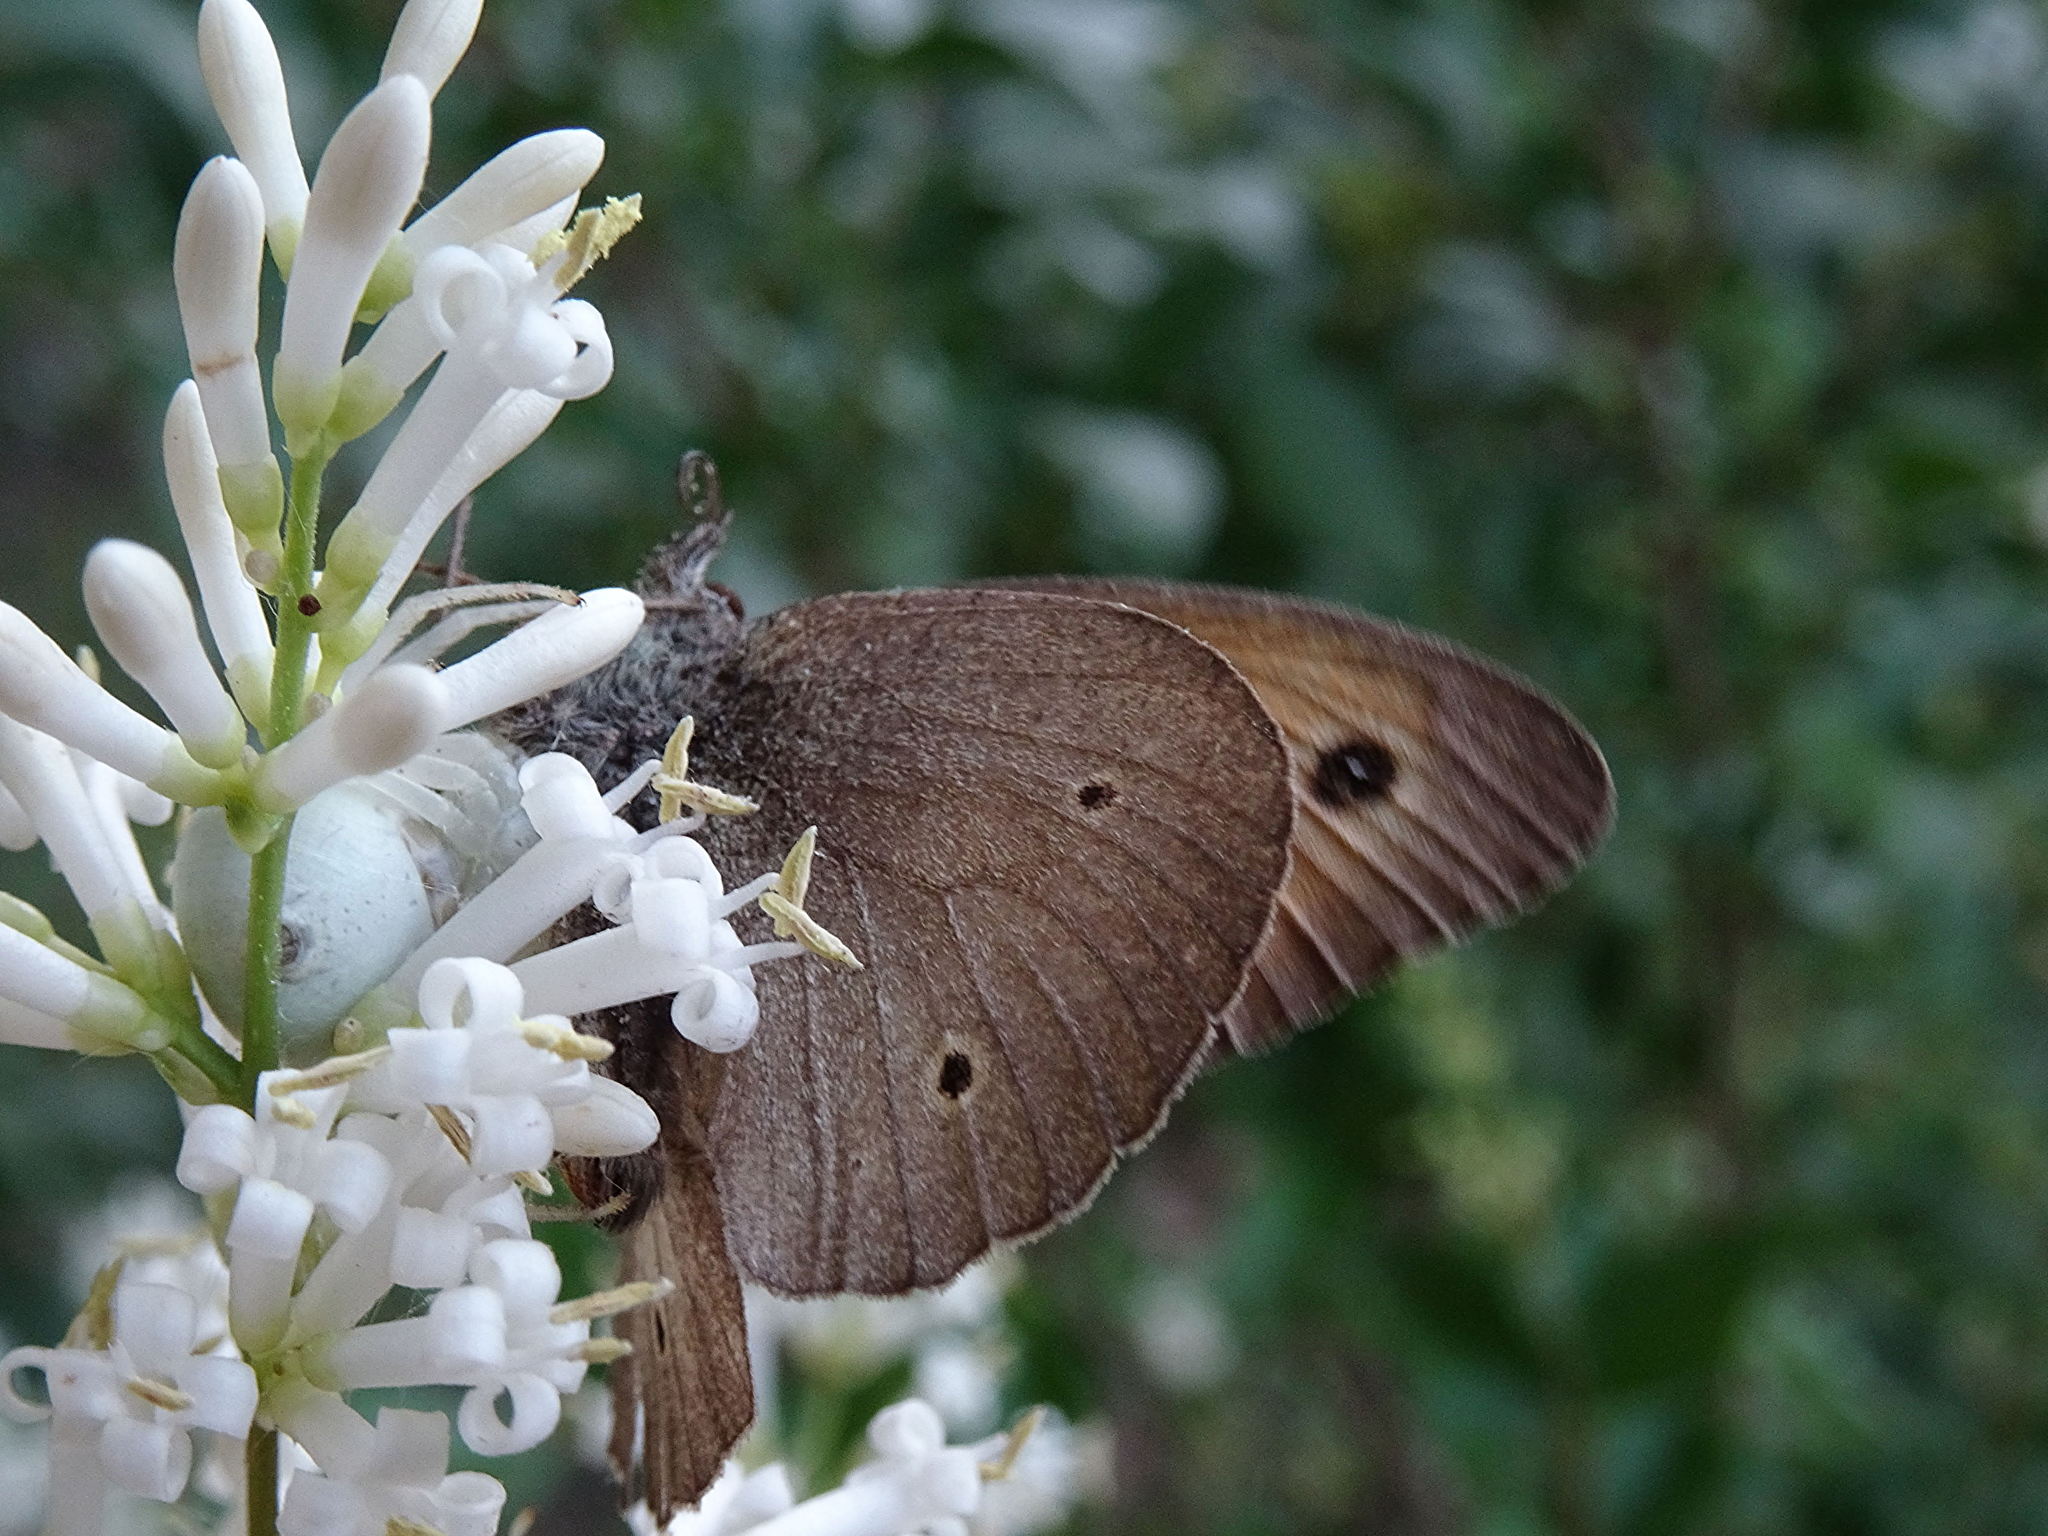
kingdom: Animalia
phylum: Arthropoda
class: Arachnida
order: Araneae
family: Thomisidae
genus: Misumena
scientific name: Misumena vatia
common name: Goldenrod crab spider
